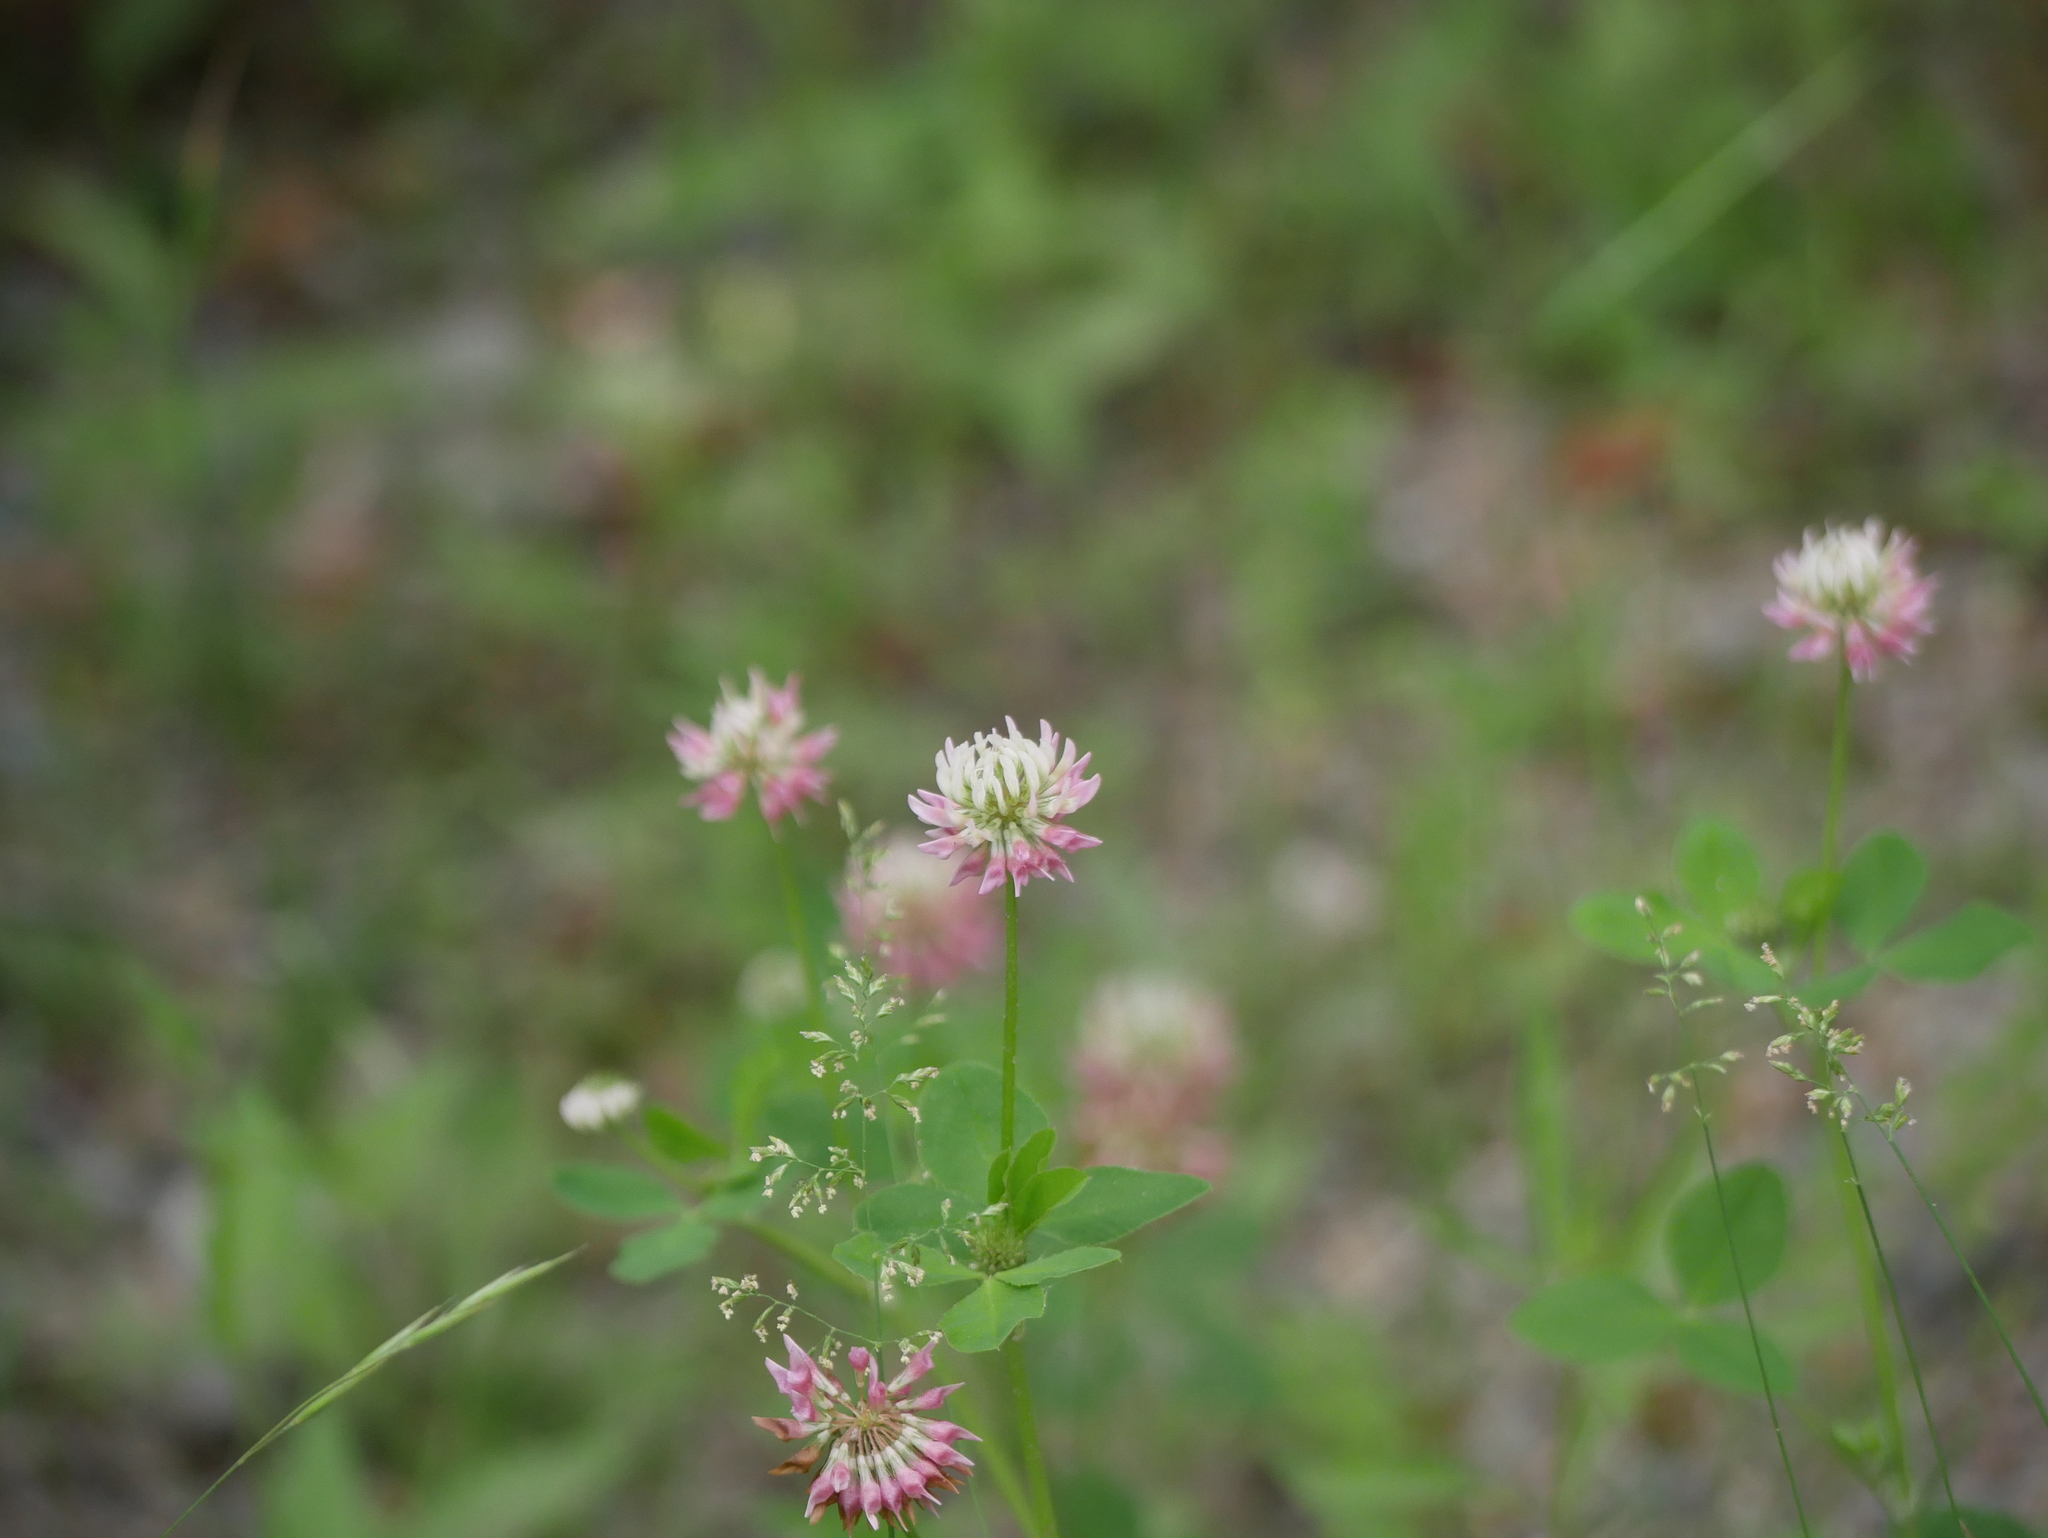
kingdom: Plantae
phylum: Tracheophyta
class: Magnoliopsida
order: Fabales
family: Fabaceae
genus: Trifolium
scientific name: Trifolium hybridum
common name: Alsike clover
